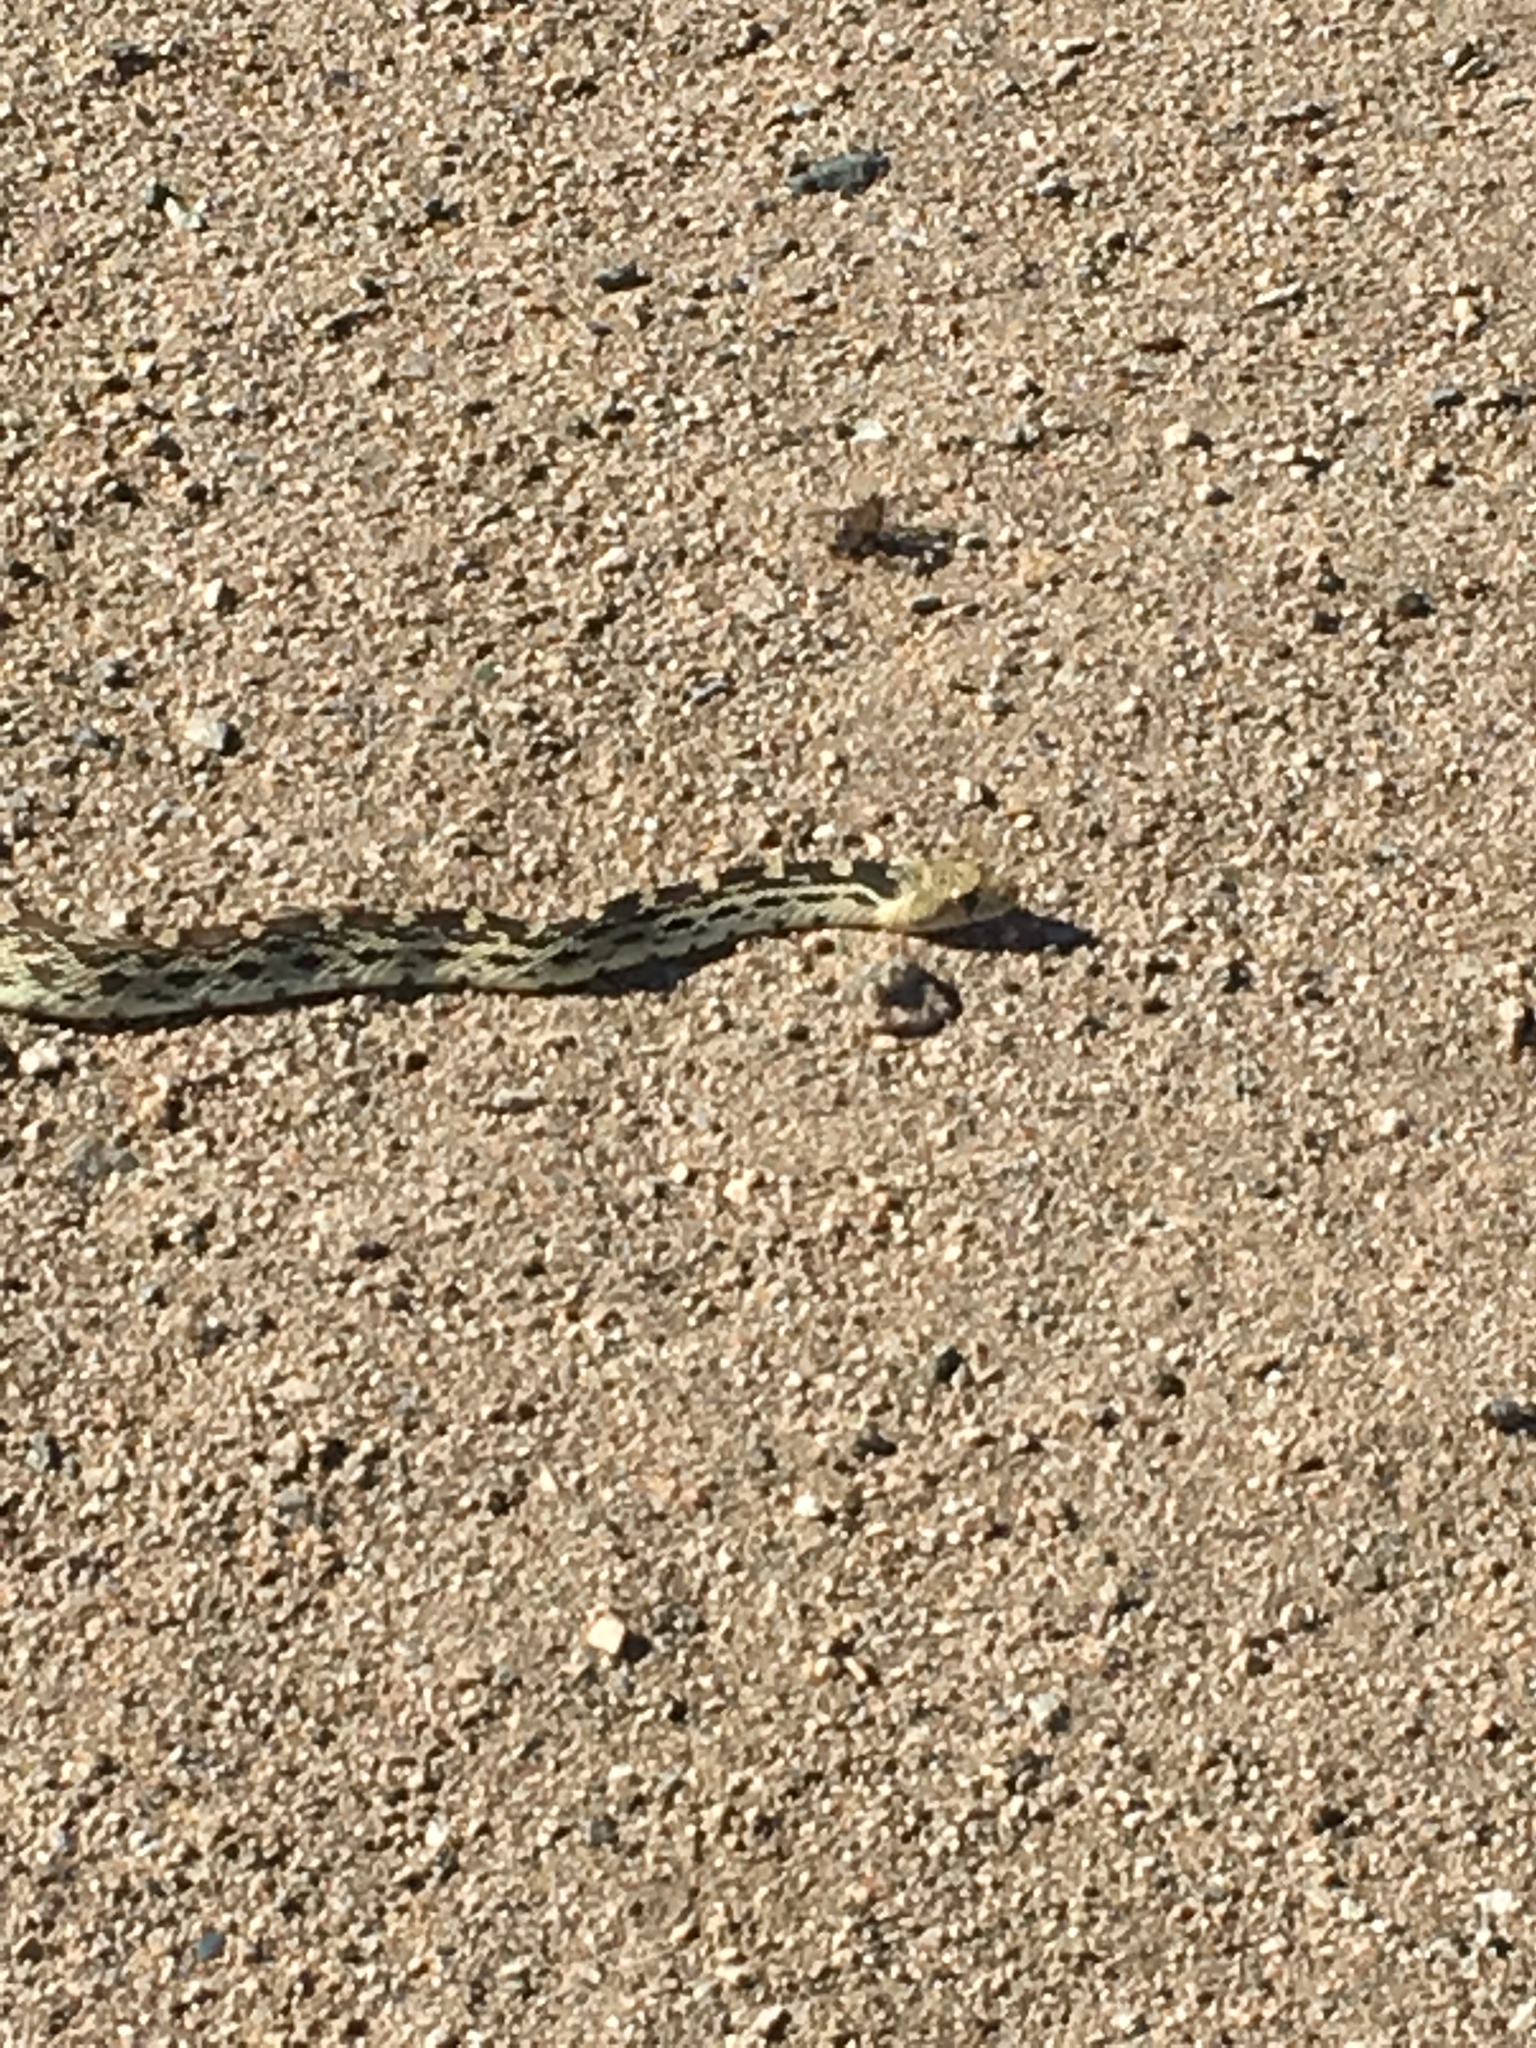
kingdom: Animalia
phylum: Chordata
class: Squamata
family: Colubridae
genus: Pituophis
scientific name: Pituophis catenifer
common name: Gopher snake
